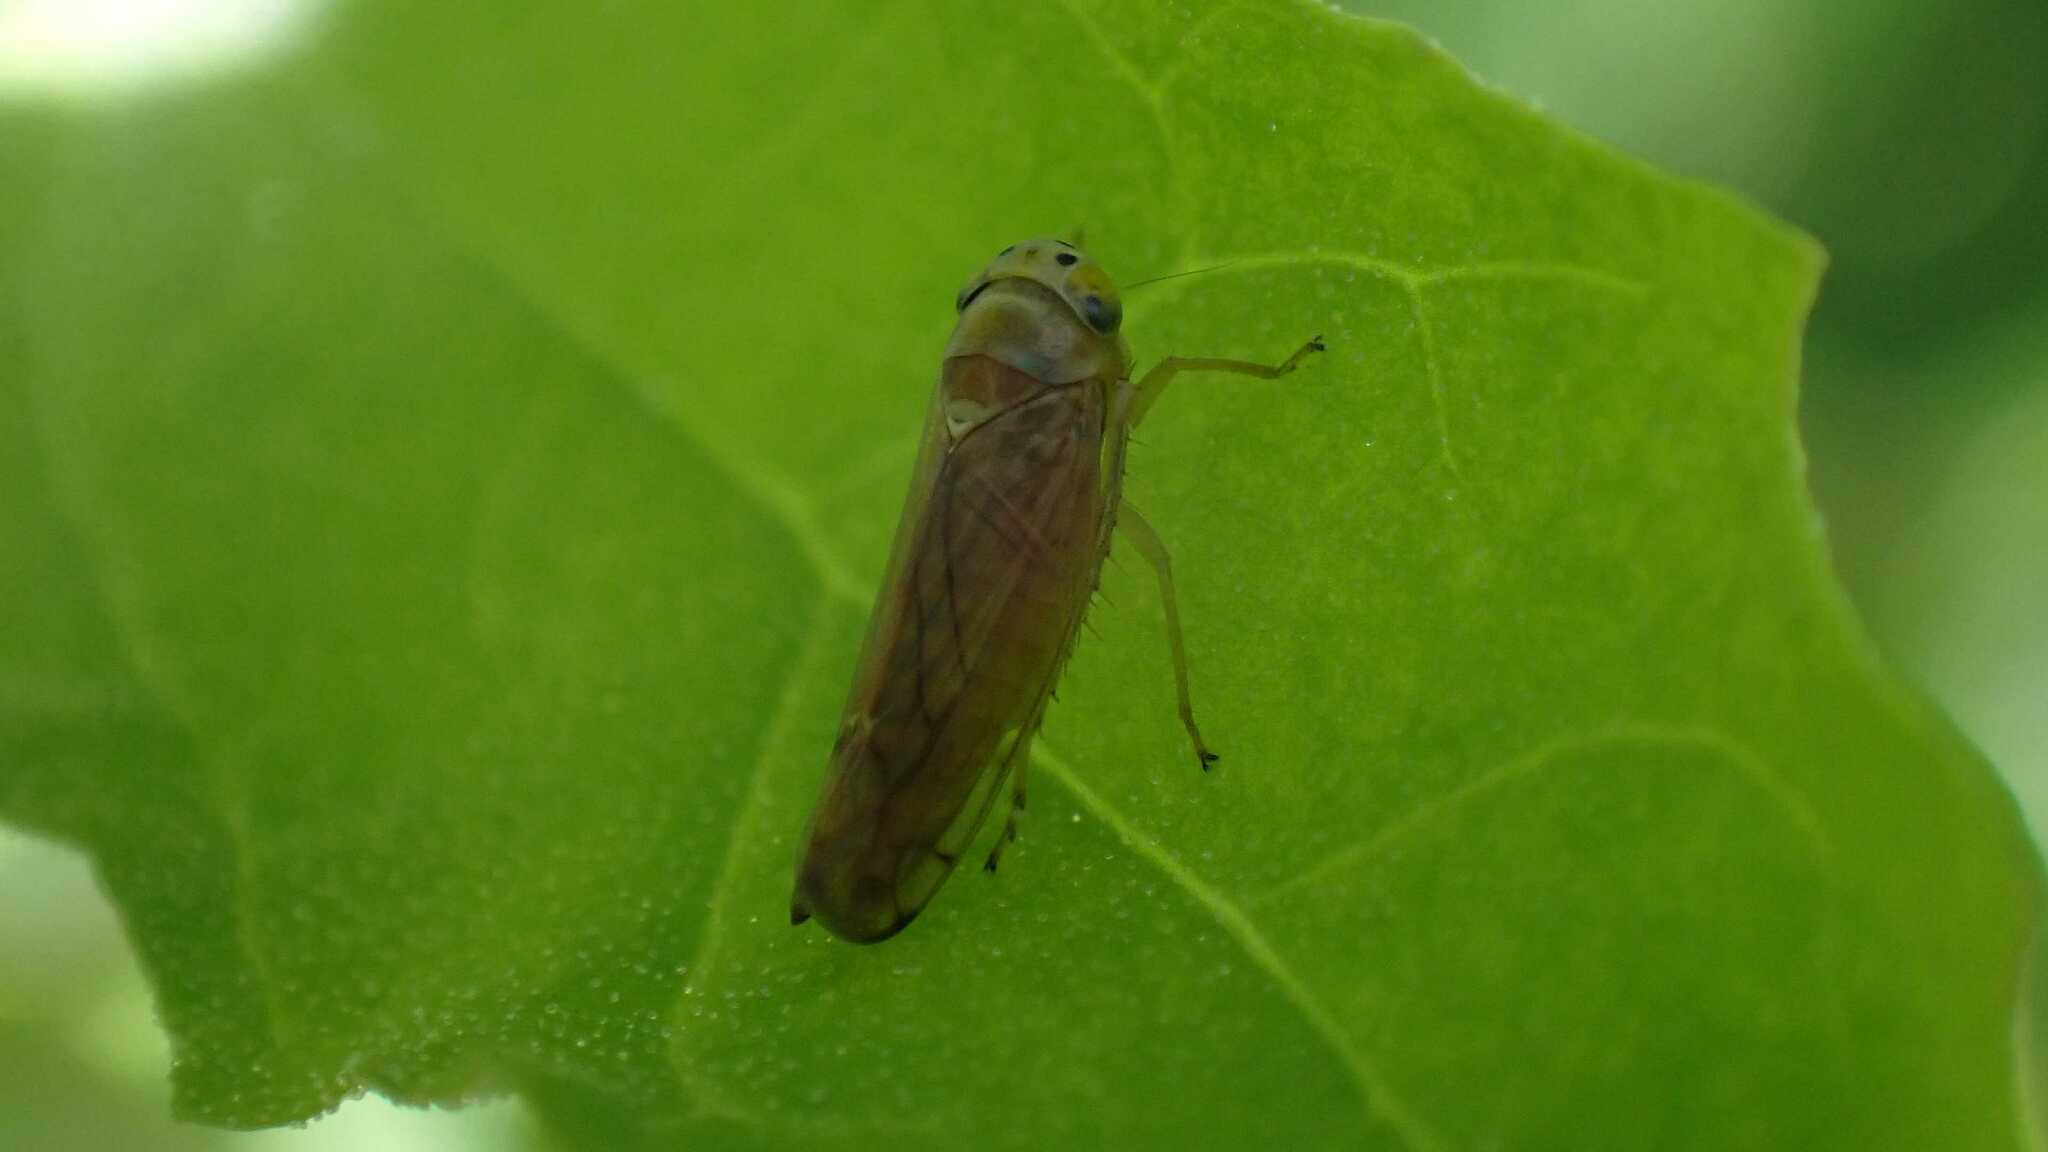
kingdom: Animalia
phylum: Arthropoda
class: Insecta
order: Hemiptera
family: Cicadellidae
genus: Anoplotettix
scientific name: Anoplotettix fuscovenosus
